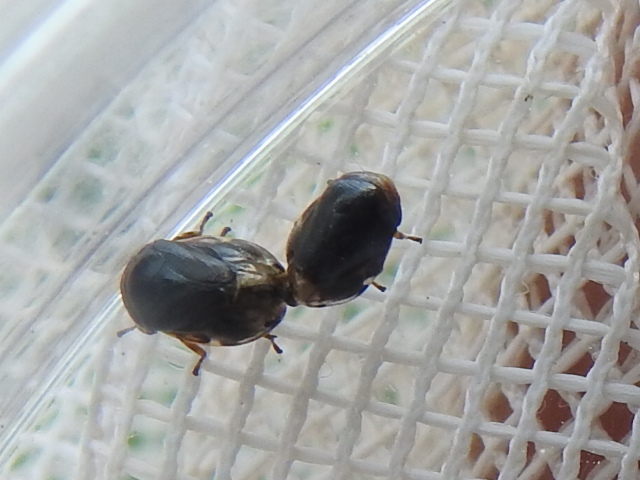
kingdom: Animalia
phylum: Arthropoda
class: Insecta
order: Hemiptera
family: Clastopteridae
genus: Clastoptera
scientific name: Clastoptera xanthocephala
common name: Sunflower spittlebug
